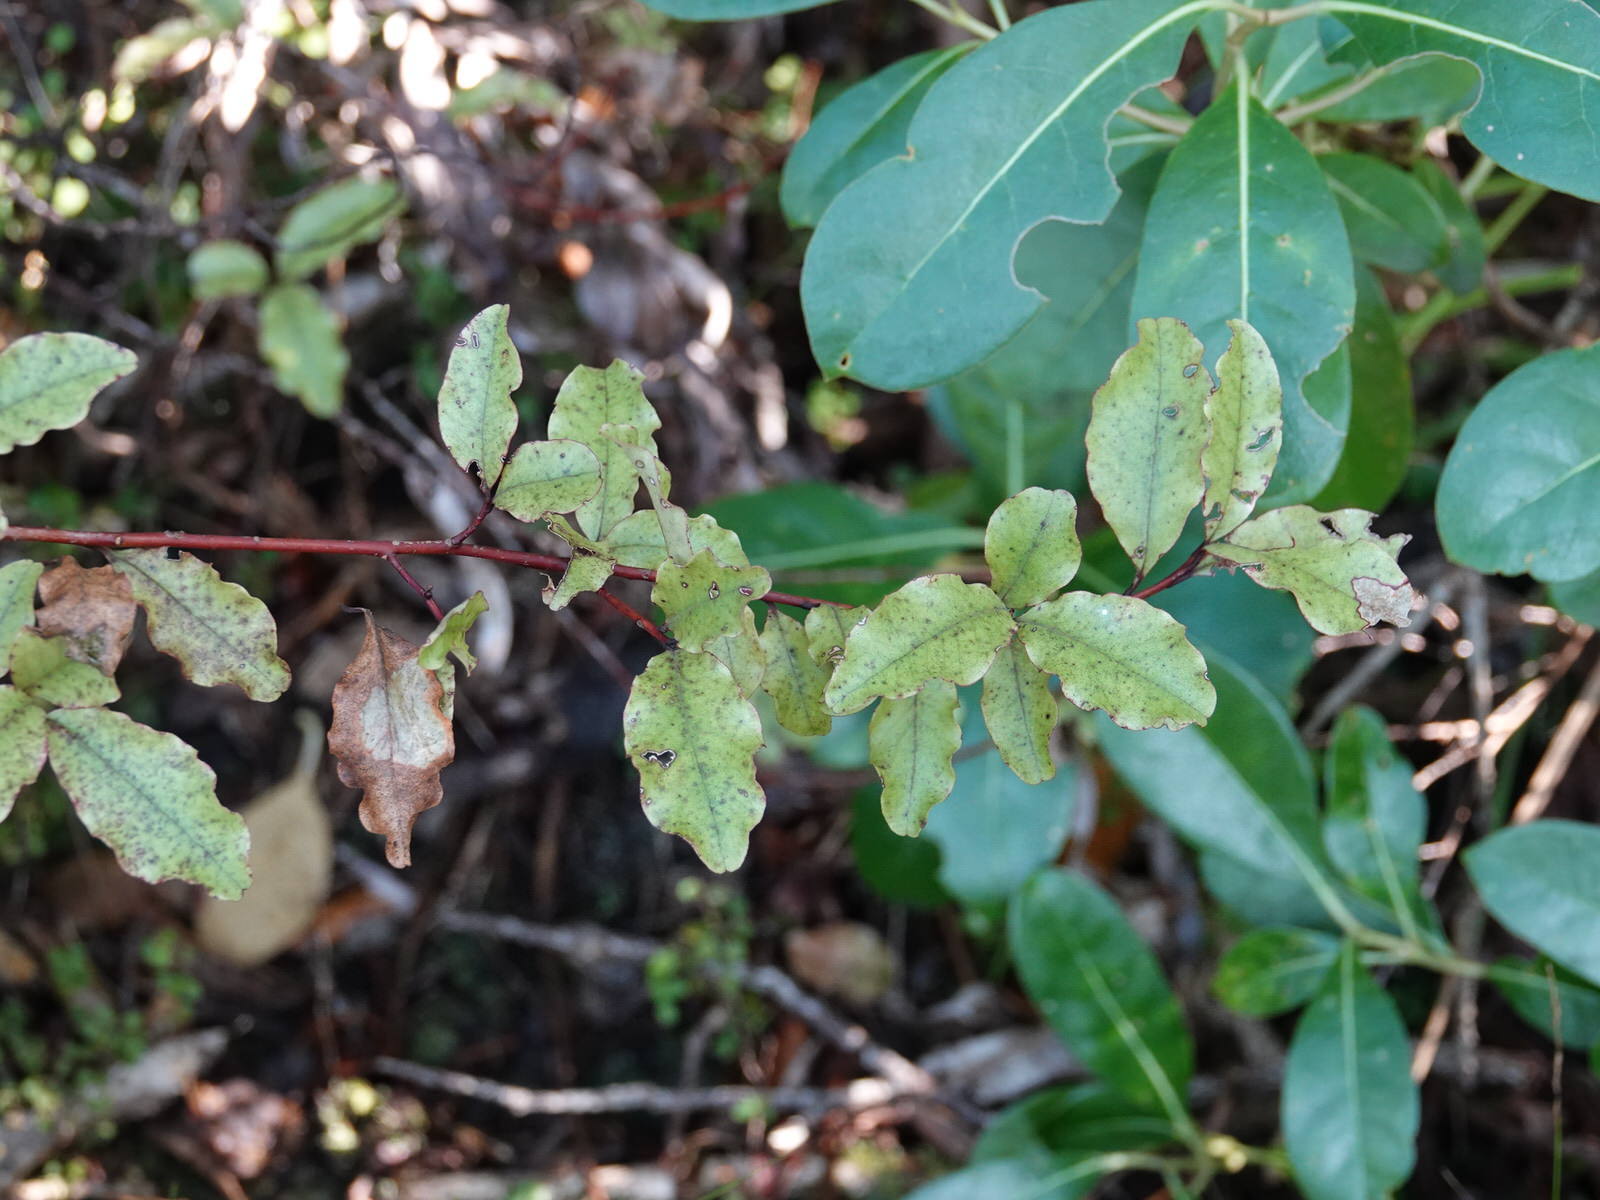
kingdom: Plantae
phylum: Tracheophyta
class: Magnoliopsida
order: Ericales
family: Primulaceae
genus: Myrsine
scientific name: Myrsine australis
